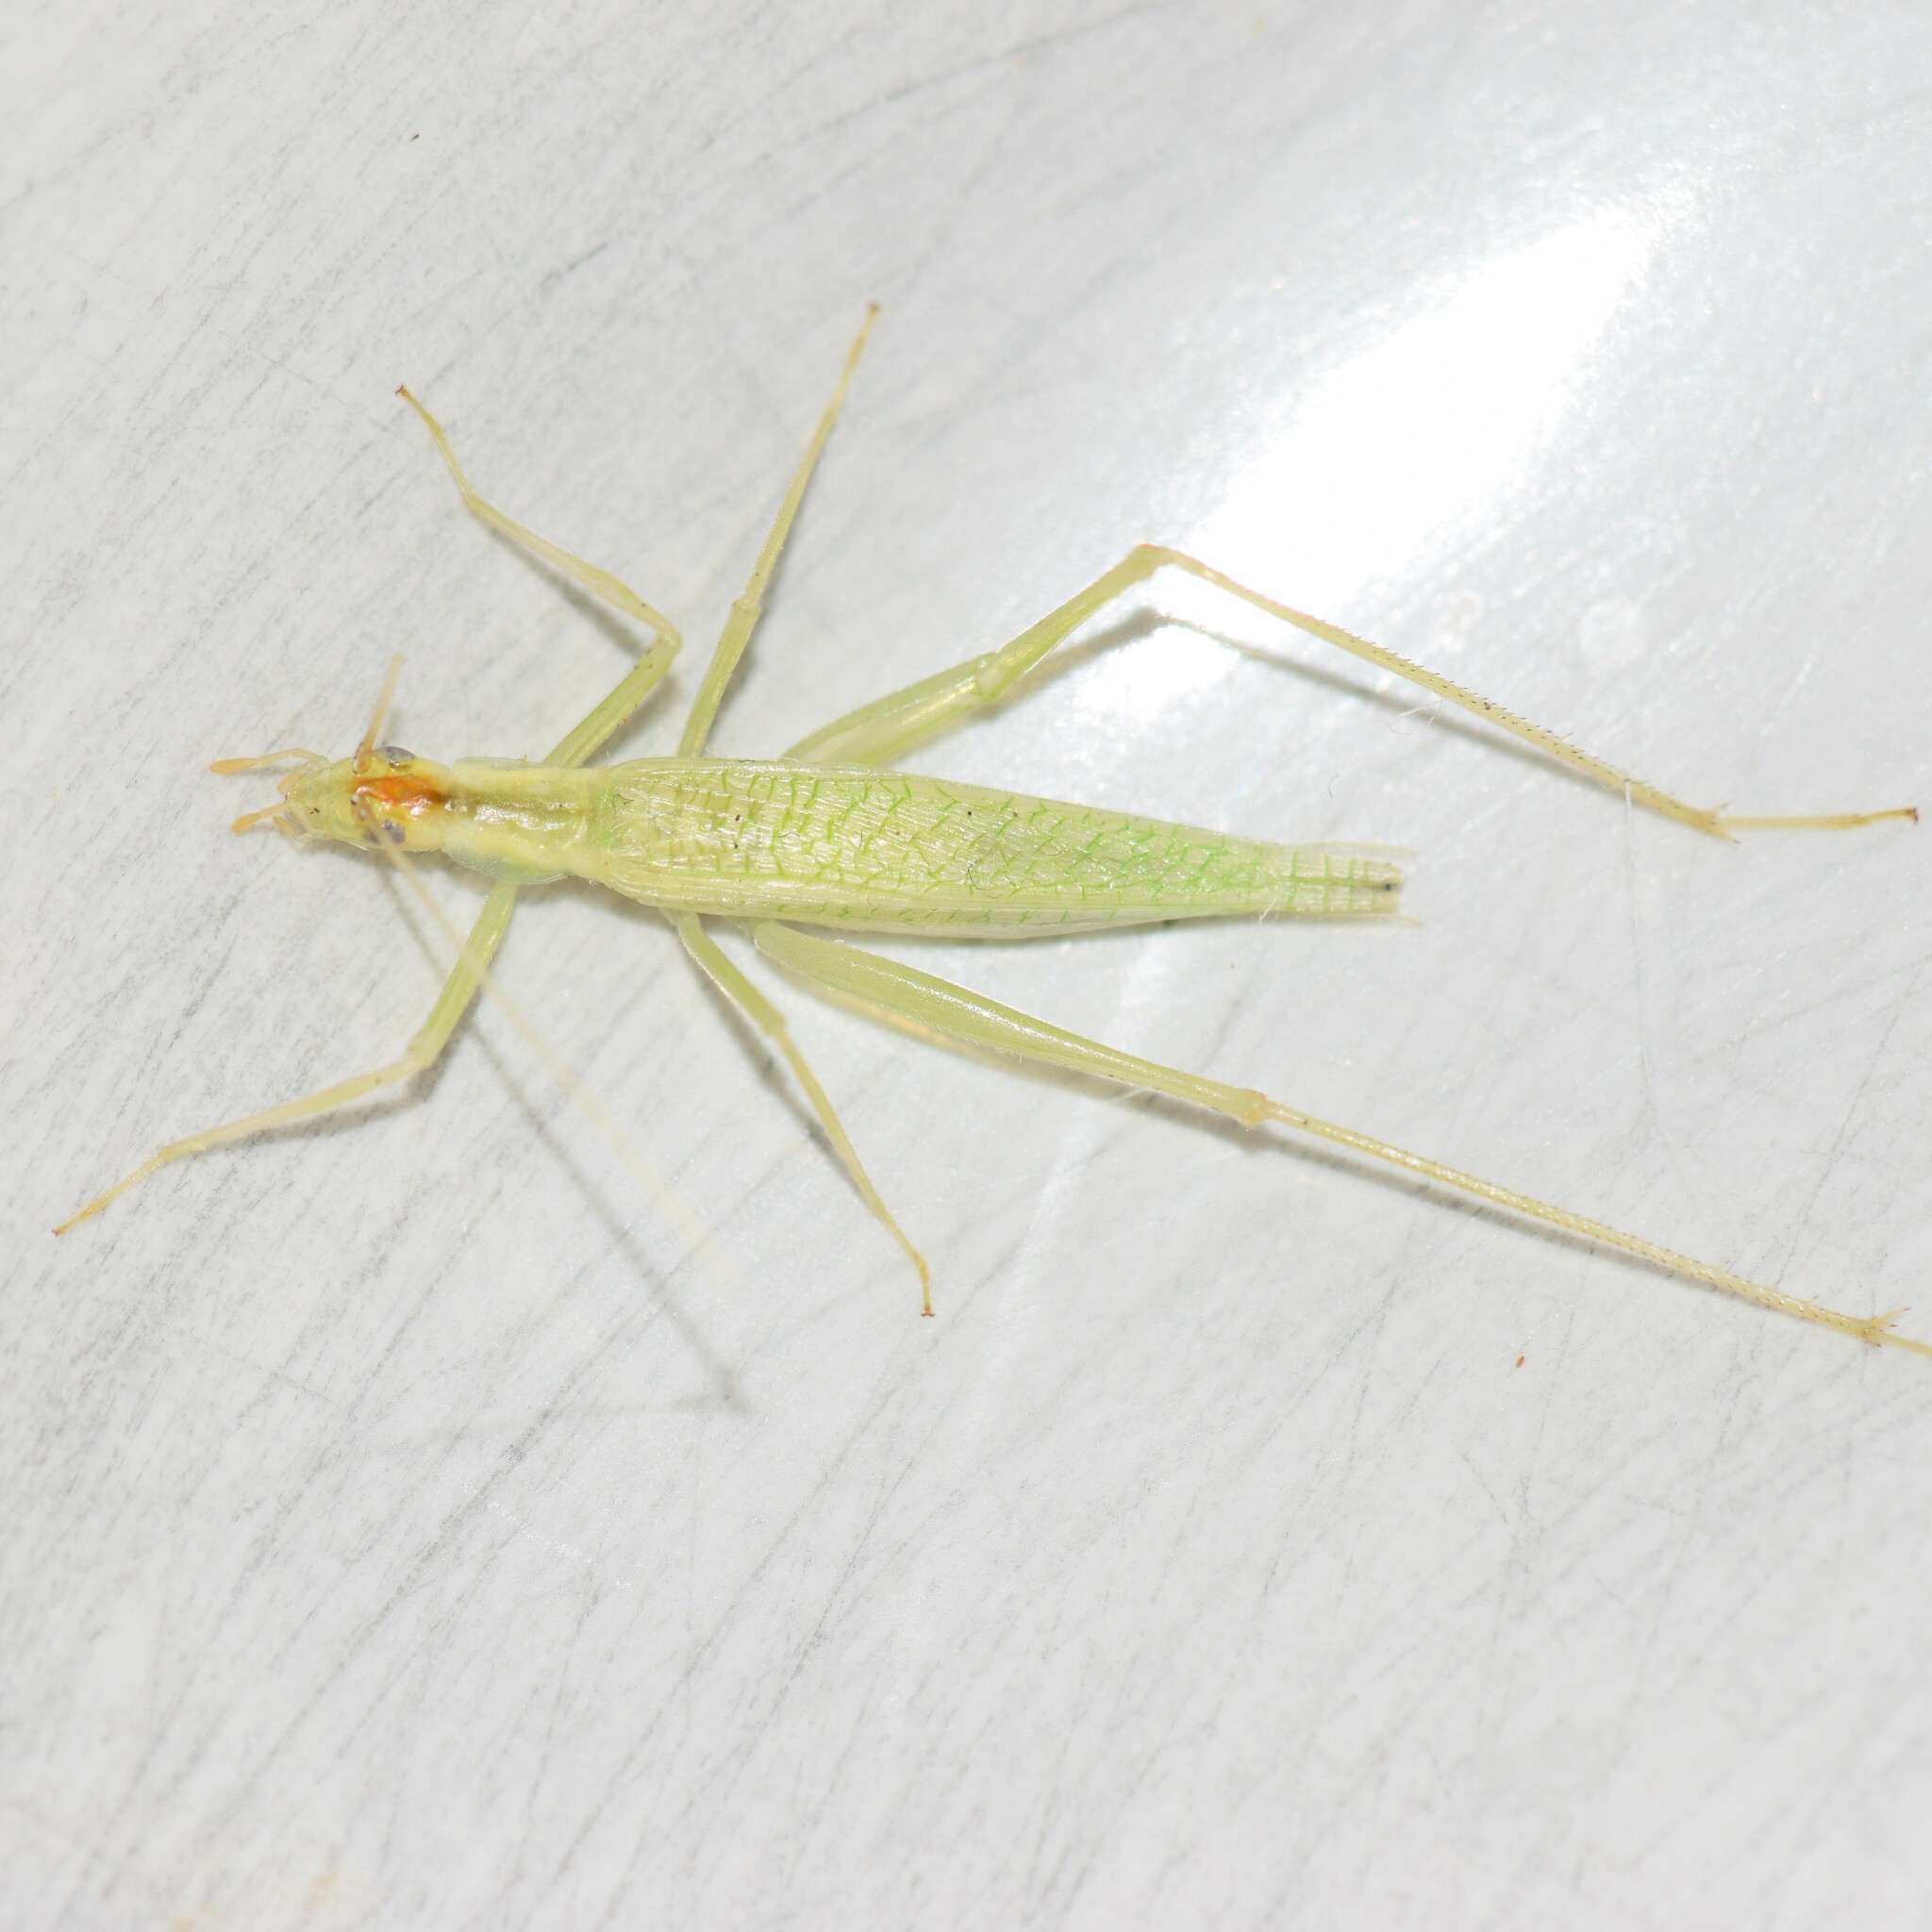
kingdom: Animalia
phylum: Arthropoda
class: Insecta
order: Orthoptera
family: Gryllidae
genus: Oecanthus
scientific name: Oecanthus niveus
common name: Narrow-winged tree cricket
